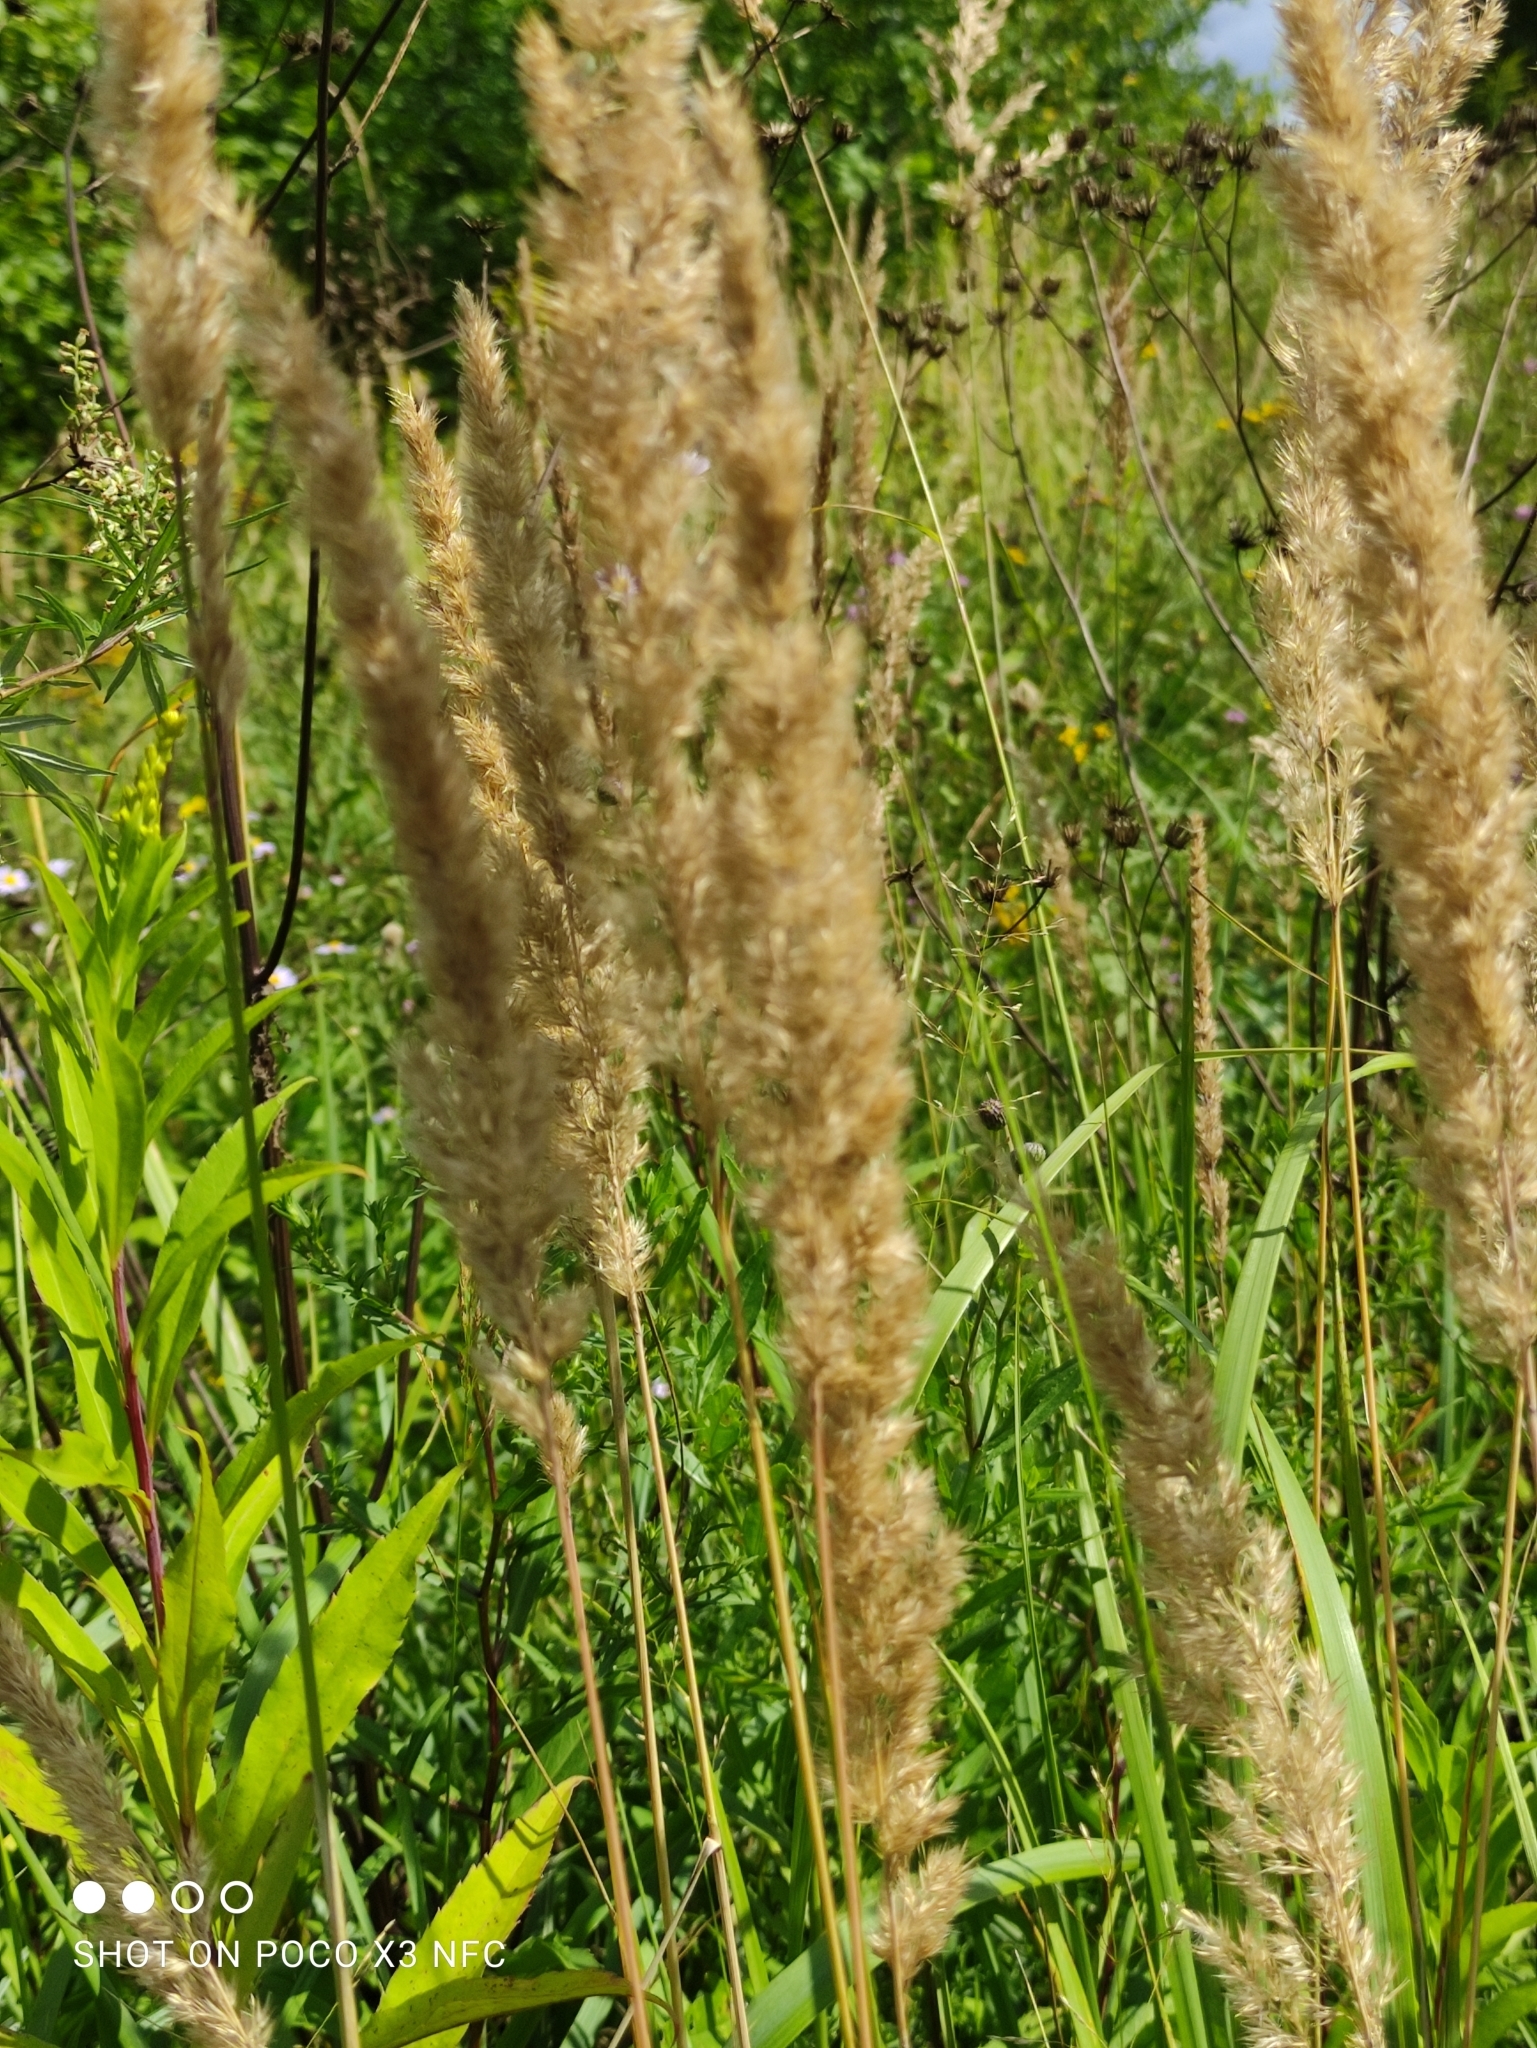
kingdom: Plantae
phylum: Tracheophyta
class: Liliopsida
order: Poales
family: Poaceae
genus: Calamagrostis
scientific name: Calamagrostis epigejos
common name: Wood small-reed
